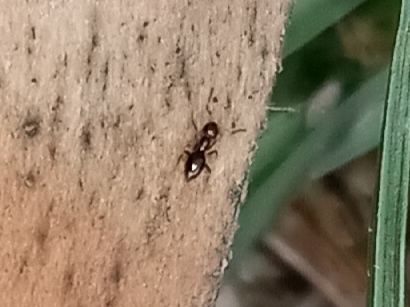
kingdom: Animalia
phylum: Arthropoda
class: Insecta
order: Hymenoptera
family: Formicidae
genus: Brachymyrmex
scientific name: Brachymyrmex patagonicus
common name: Dark rover ant
